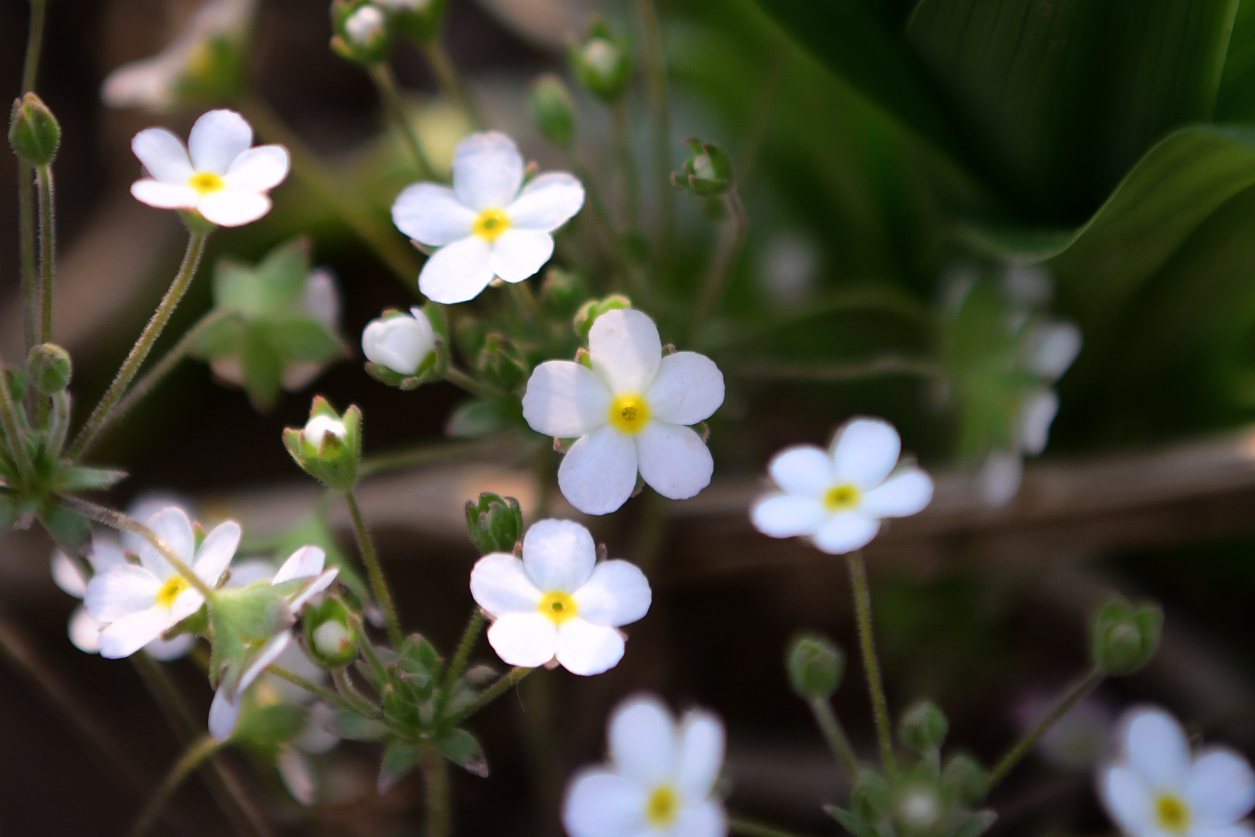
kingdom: Plantae
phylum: Tracheophyta
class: Magnoliopsida
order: Ericales
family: Primulaceae
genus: Androsace
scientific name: Androsace umbellata
